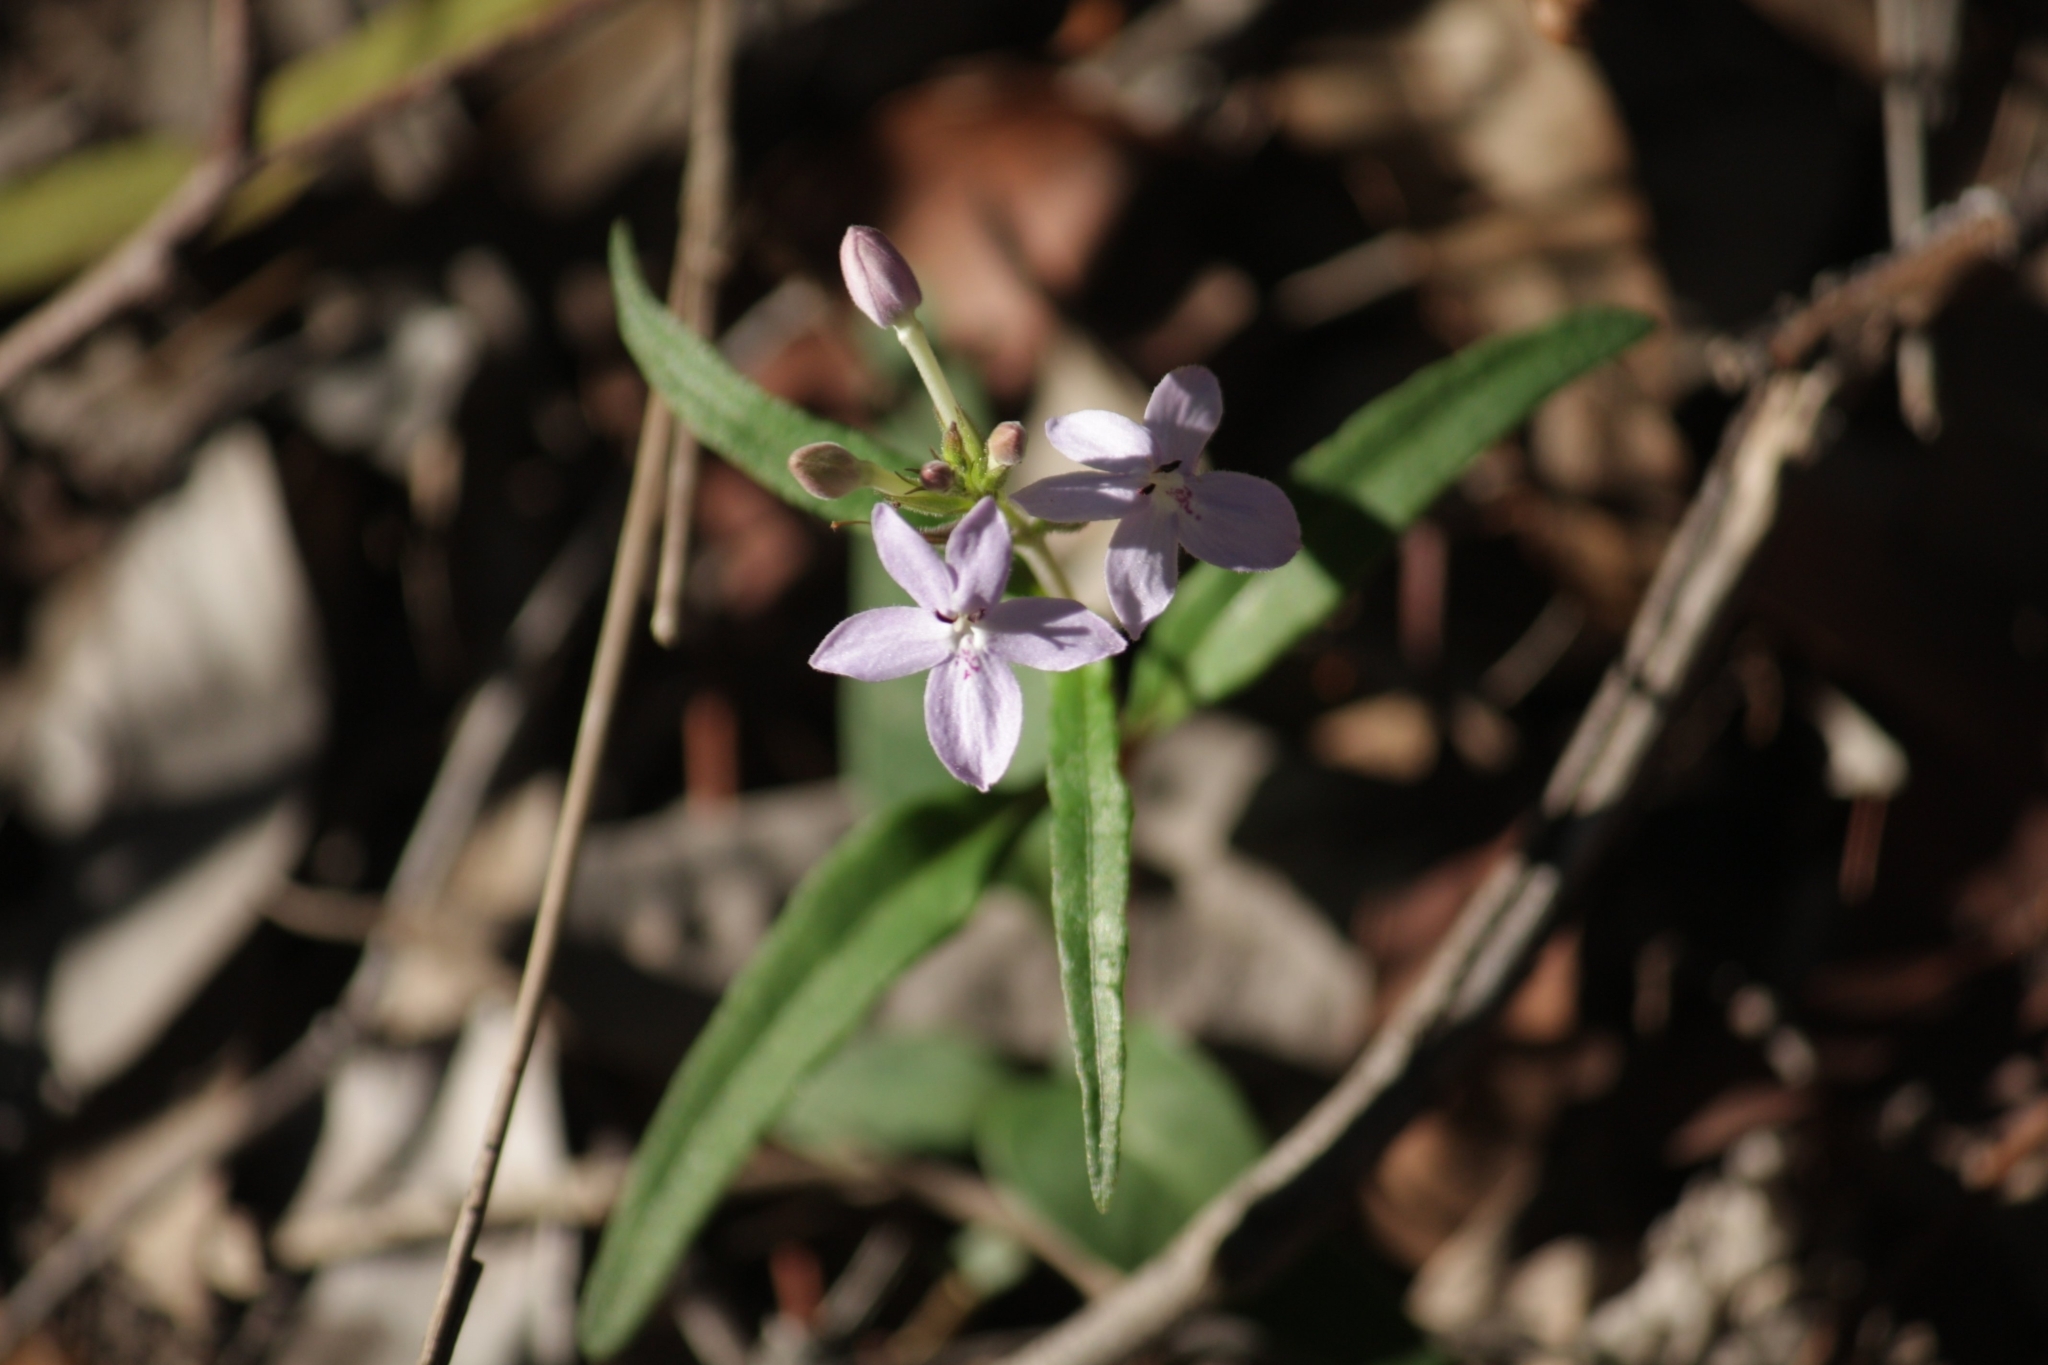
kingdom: Plantae
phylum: Tracheophyta
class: Magnoliopsida
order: Lamiales
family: Acanthaceae
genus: Pseuderanthemum
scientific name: Pseuderanthemum variabile
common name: Night and afternoon
